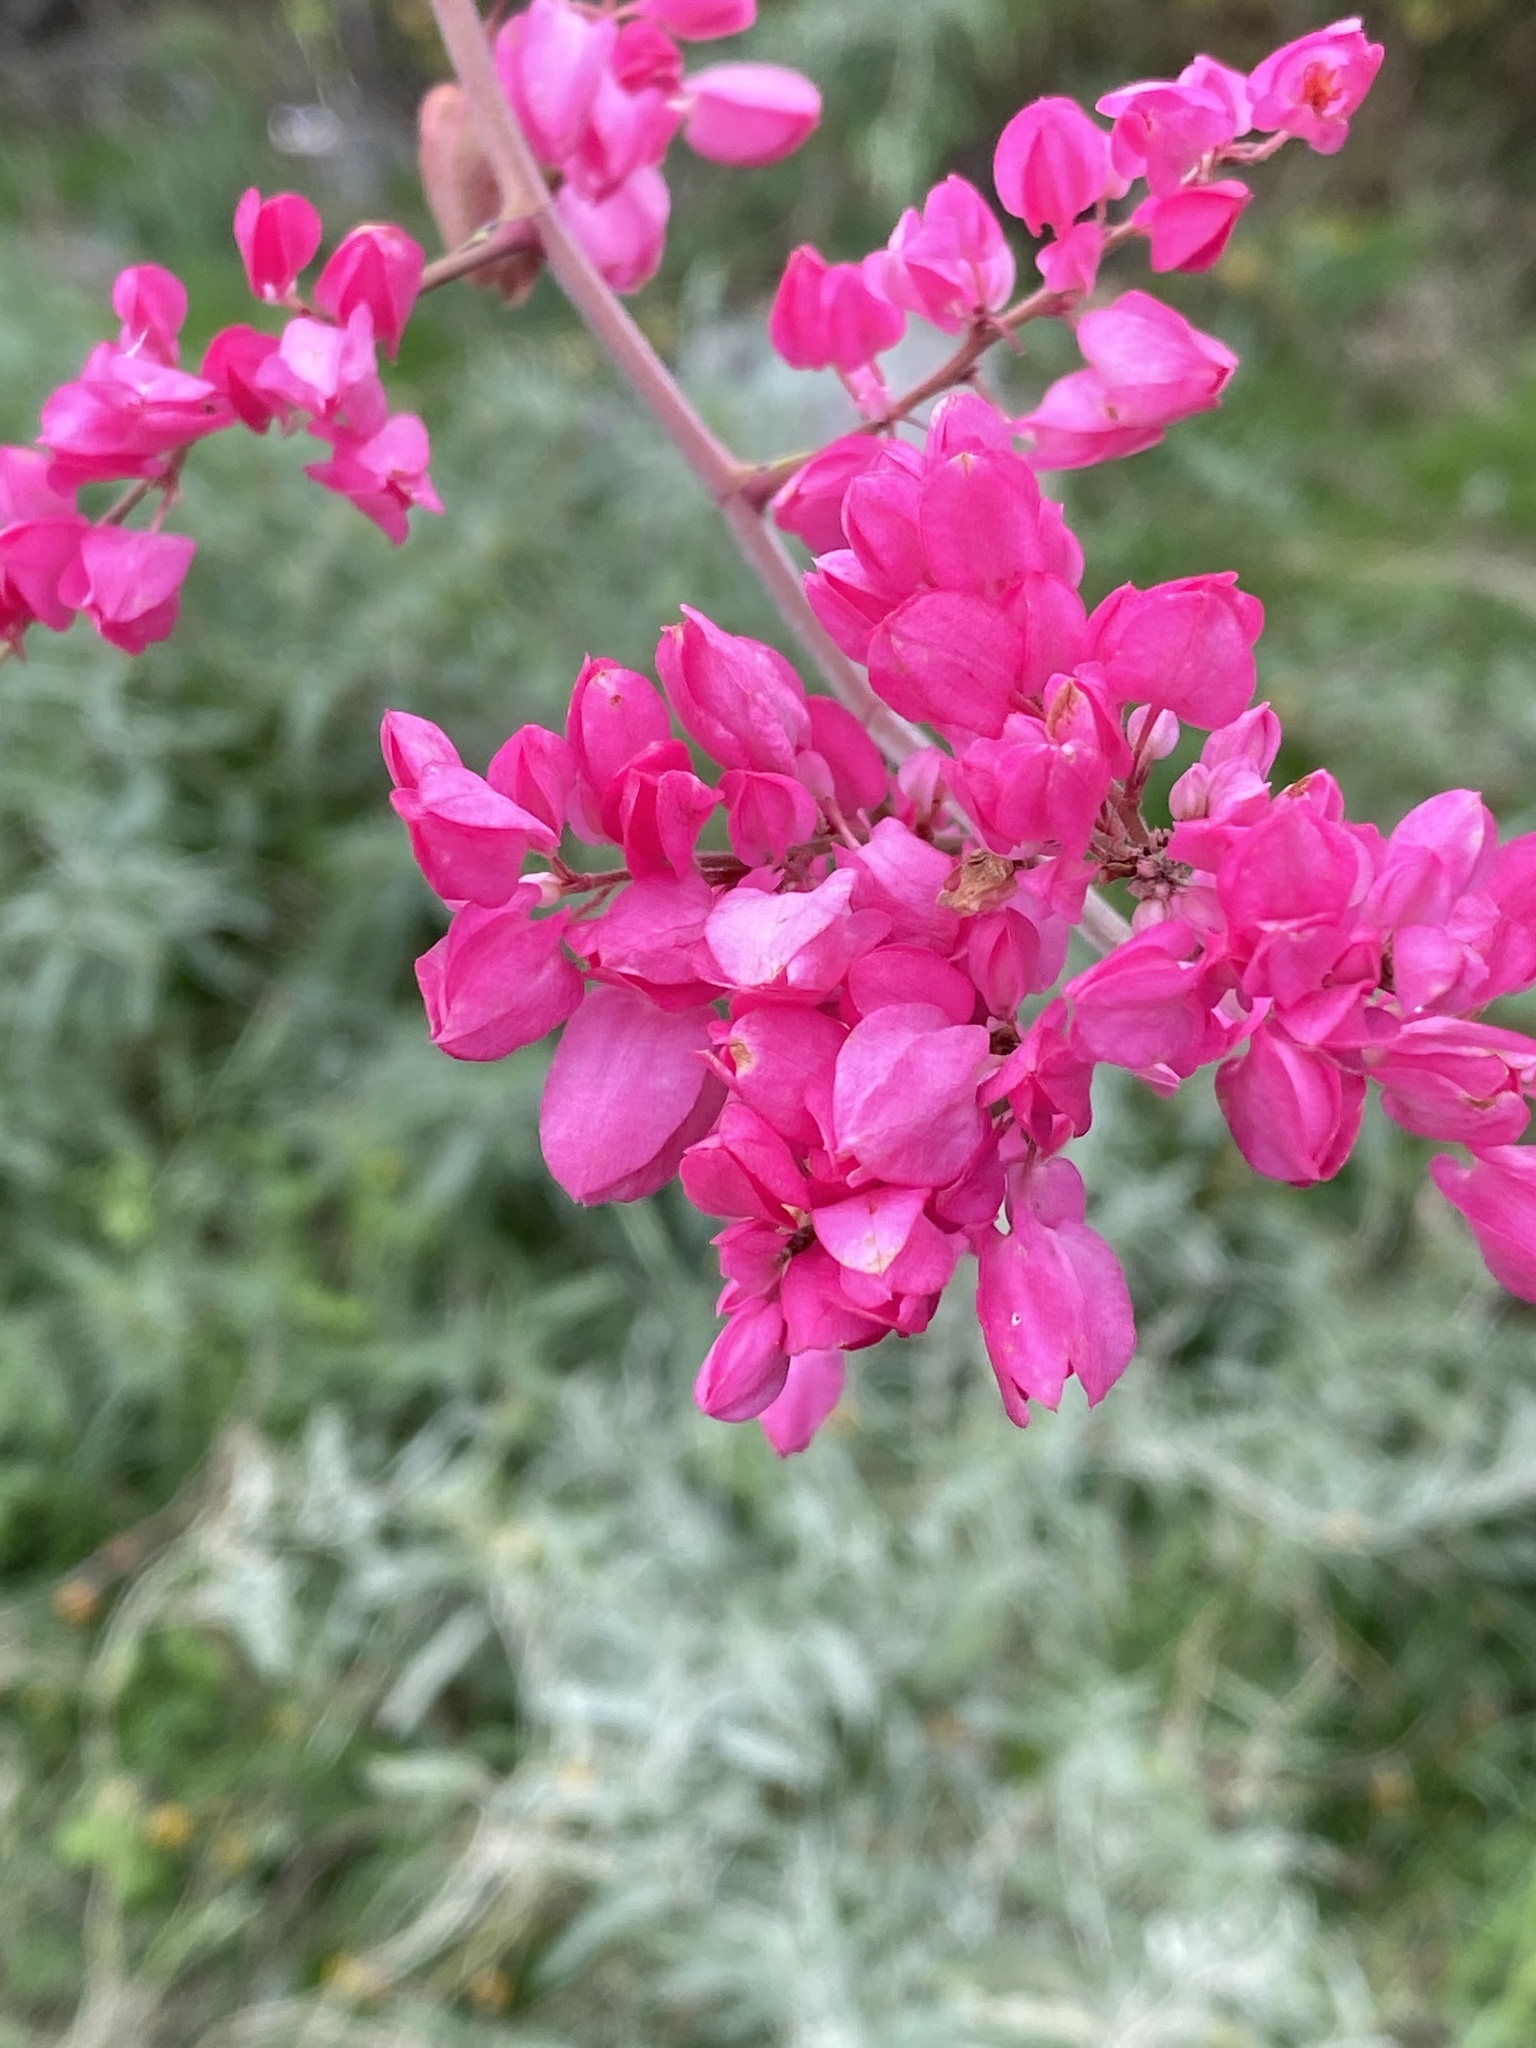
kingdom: Plantae
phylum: Tracheophyta
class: Magnoliopsida
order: Caryophyllales
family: Polygonaceae
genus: Antigonon
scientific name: Antigonon leptopus
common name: Coral vine
